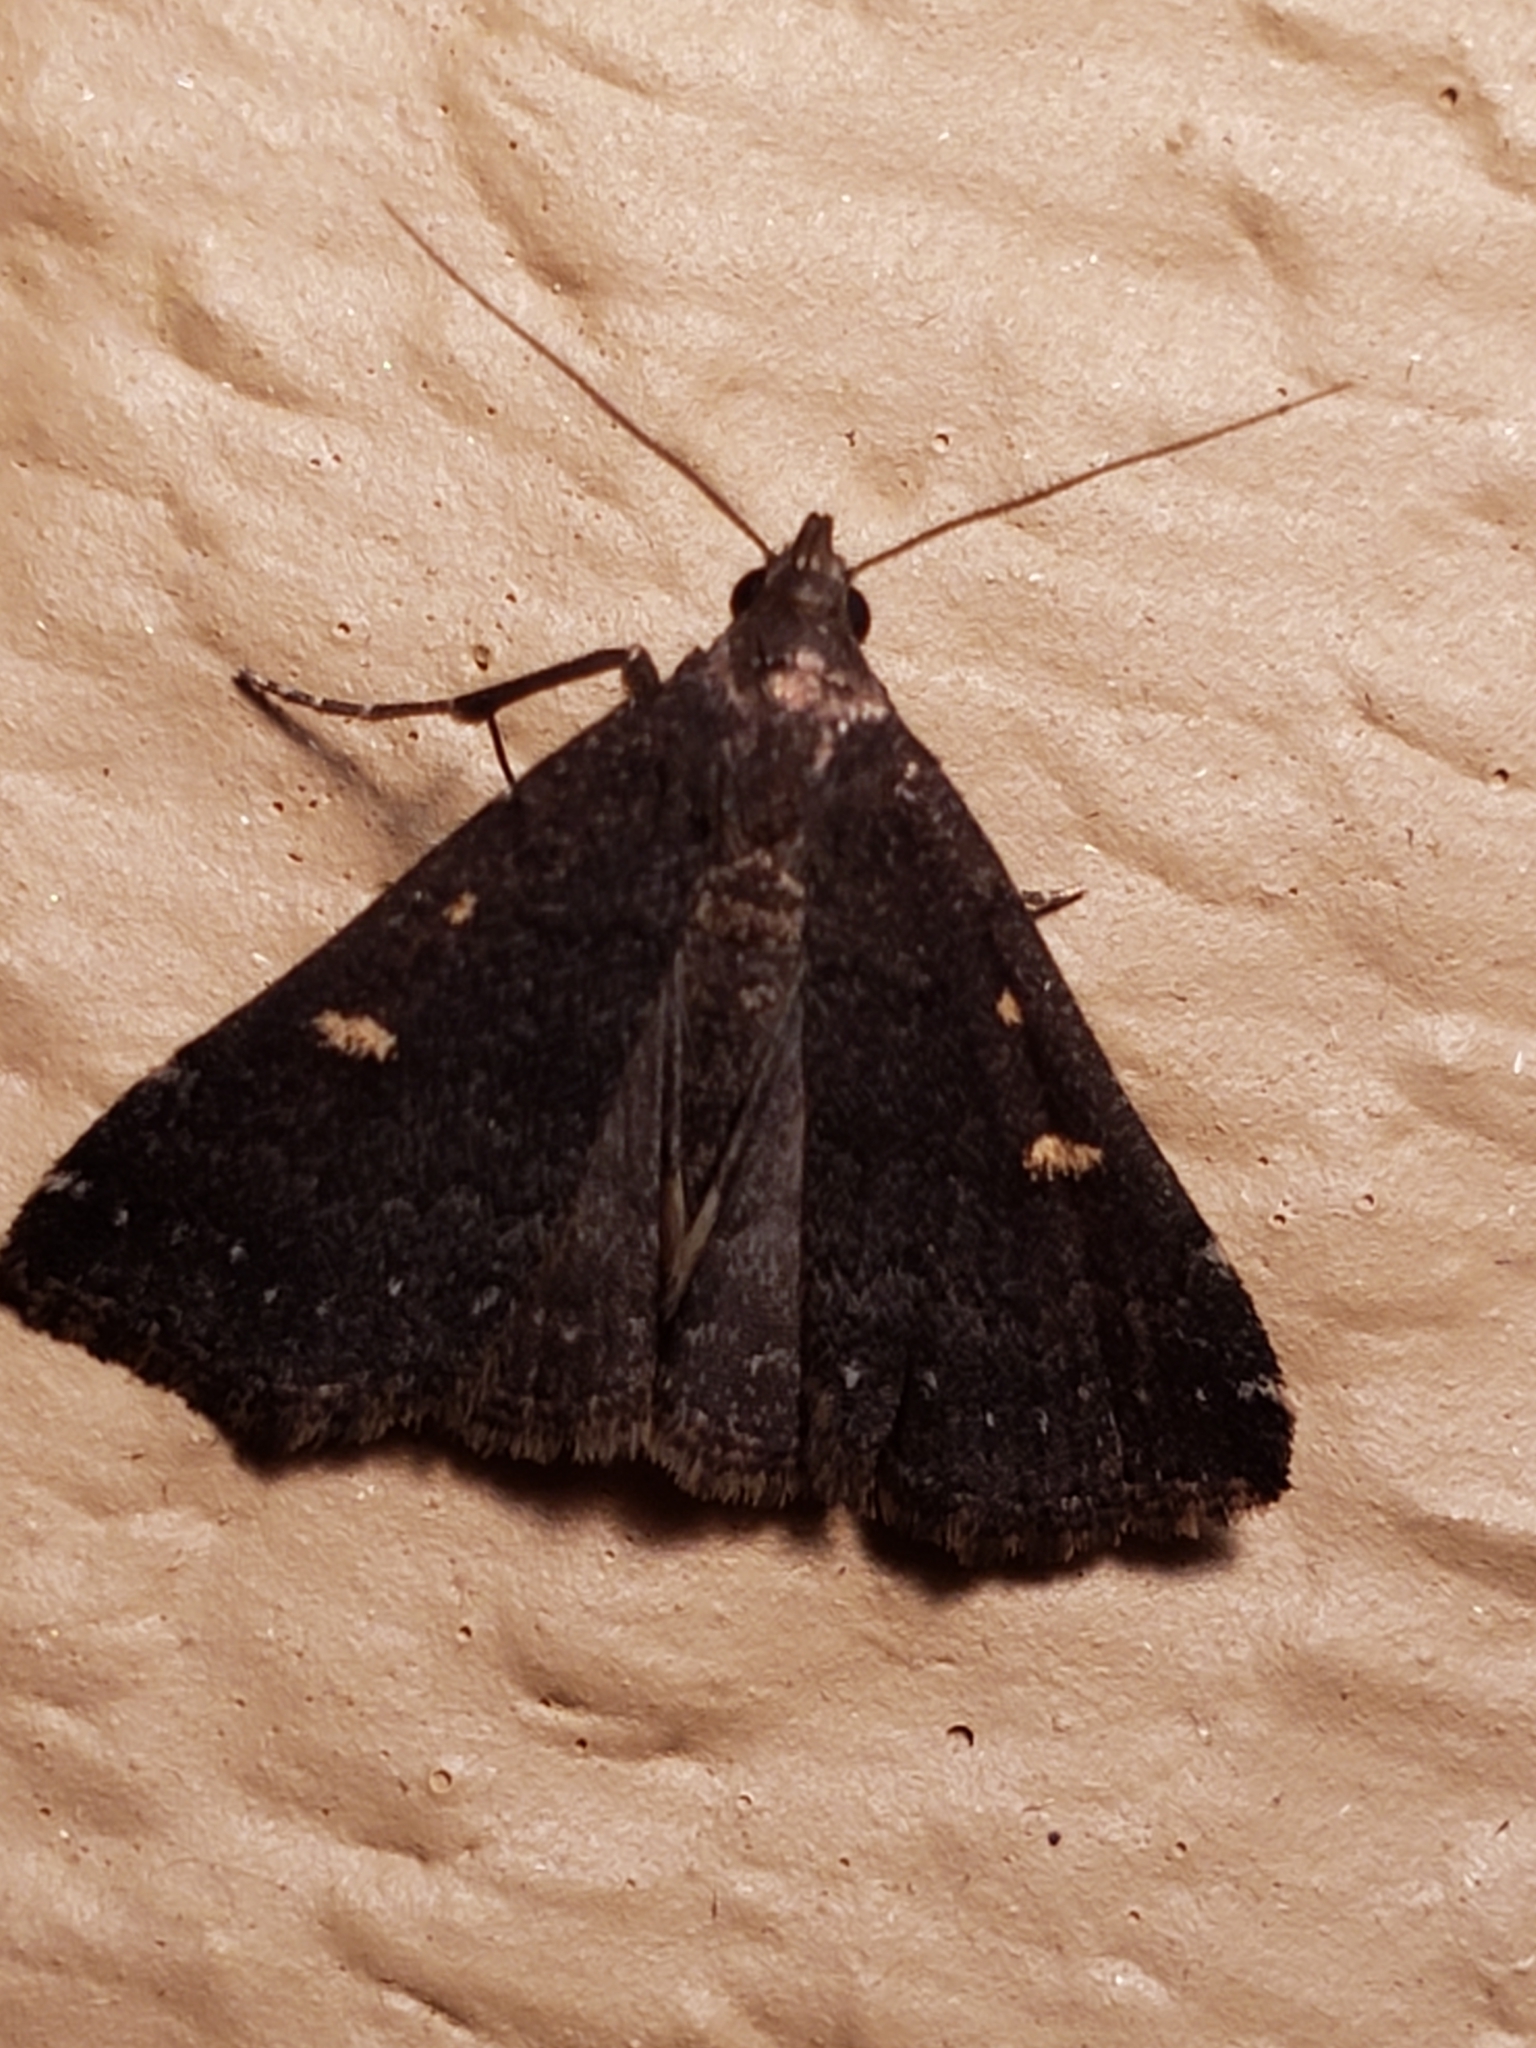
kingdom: Animalia
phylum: Arthropoda
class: Insecta
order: Lepidoptera
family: Erebidae
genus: Tetanolita
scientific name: Tetanolita mynesalis
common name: Smoky tetanolita moth
